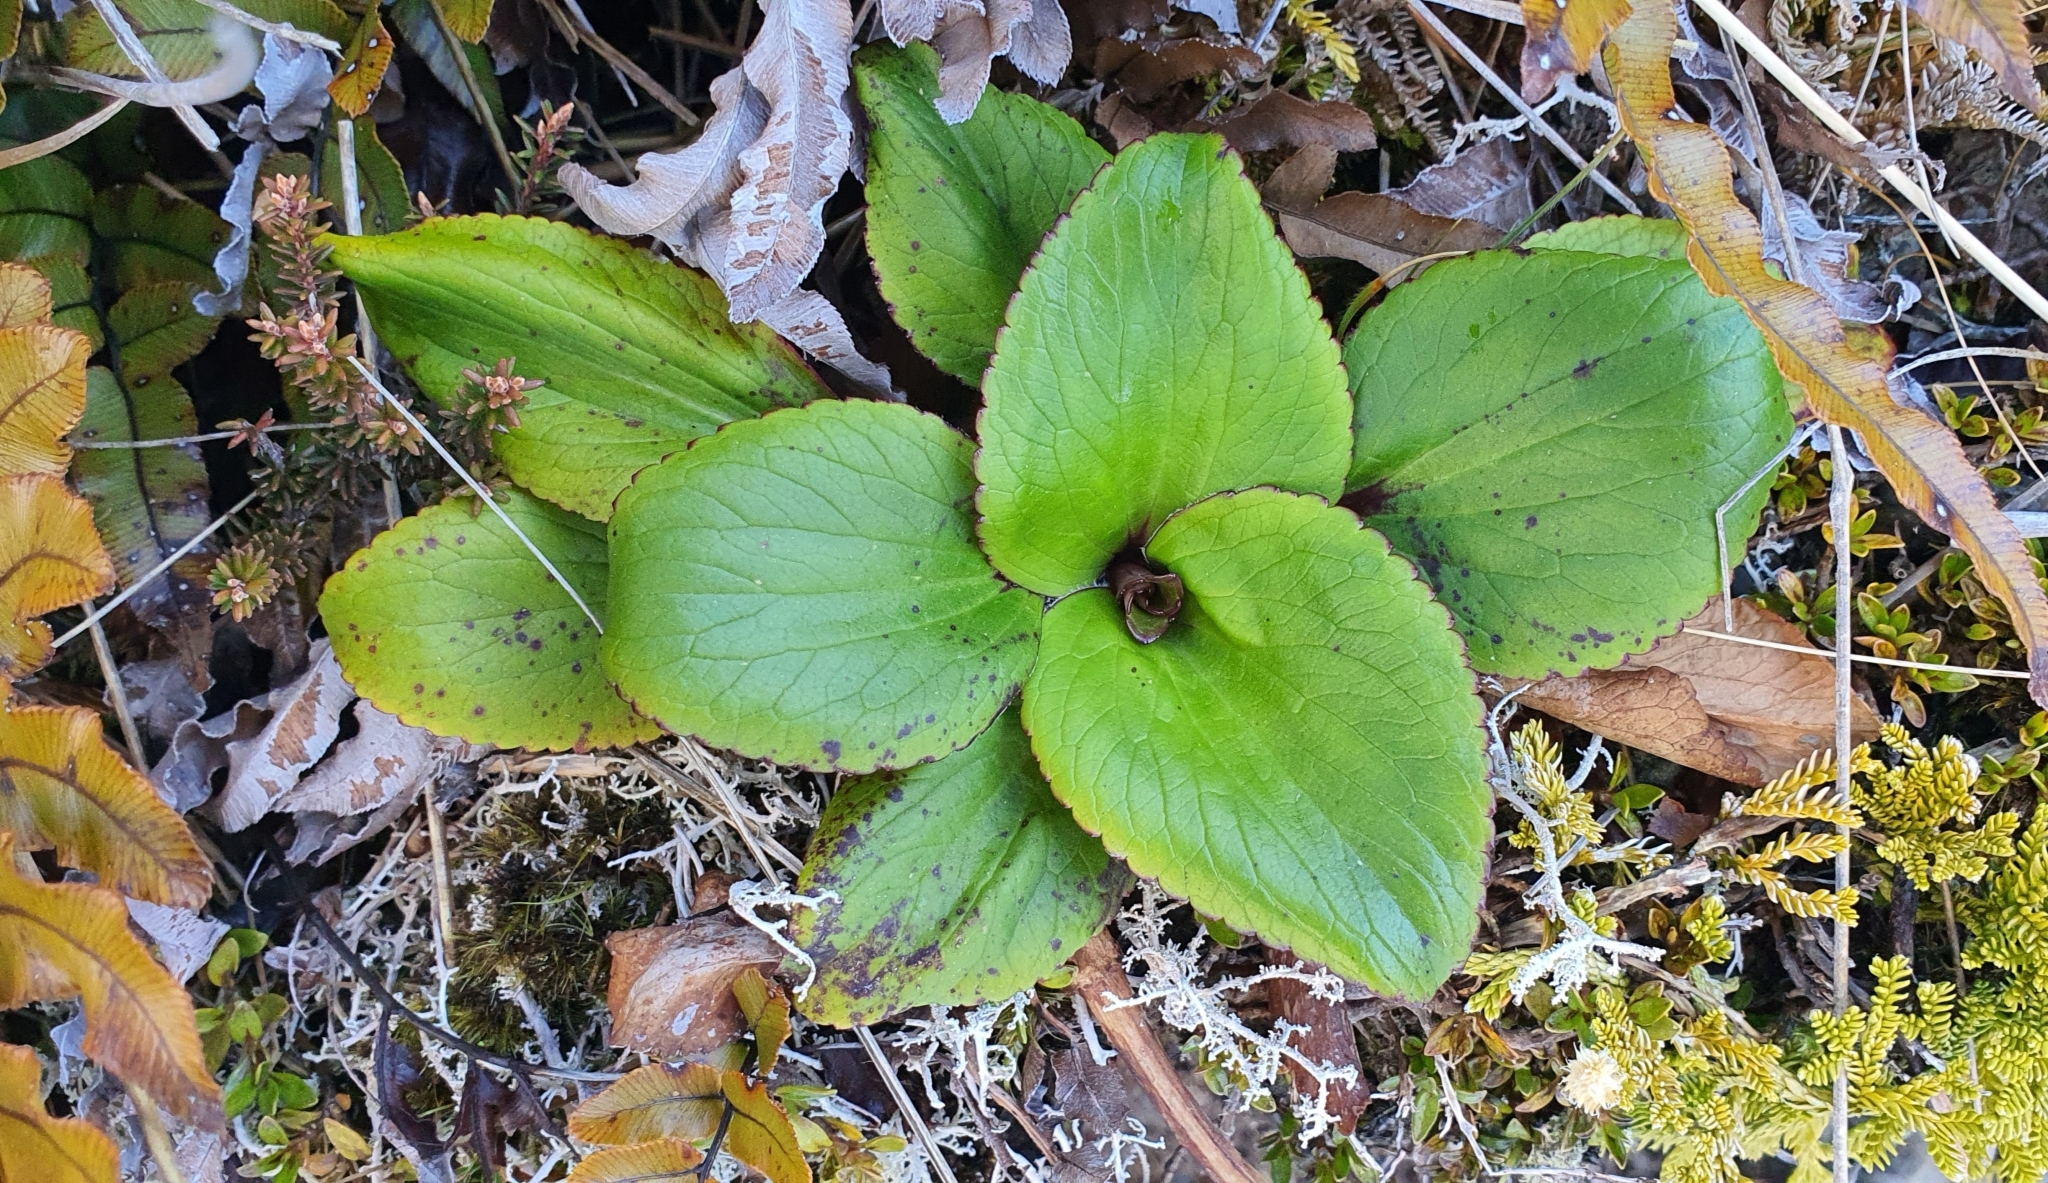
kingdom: Plantae
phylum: Tracheophyta
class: Magnoliopsida
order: Lamiales
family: Plantaginaceae
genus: Ourisia
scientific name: Ourisia calycina
